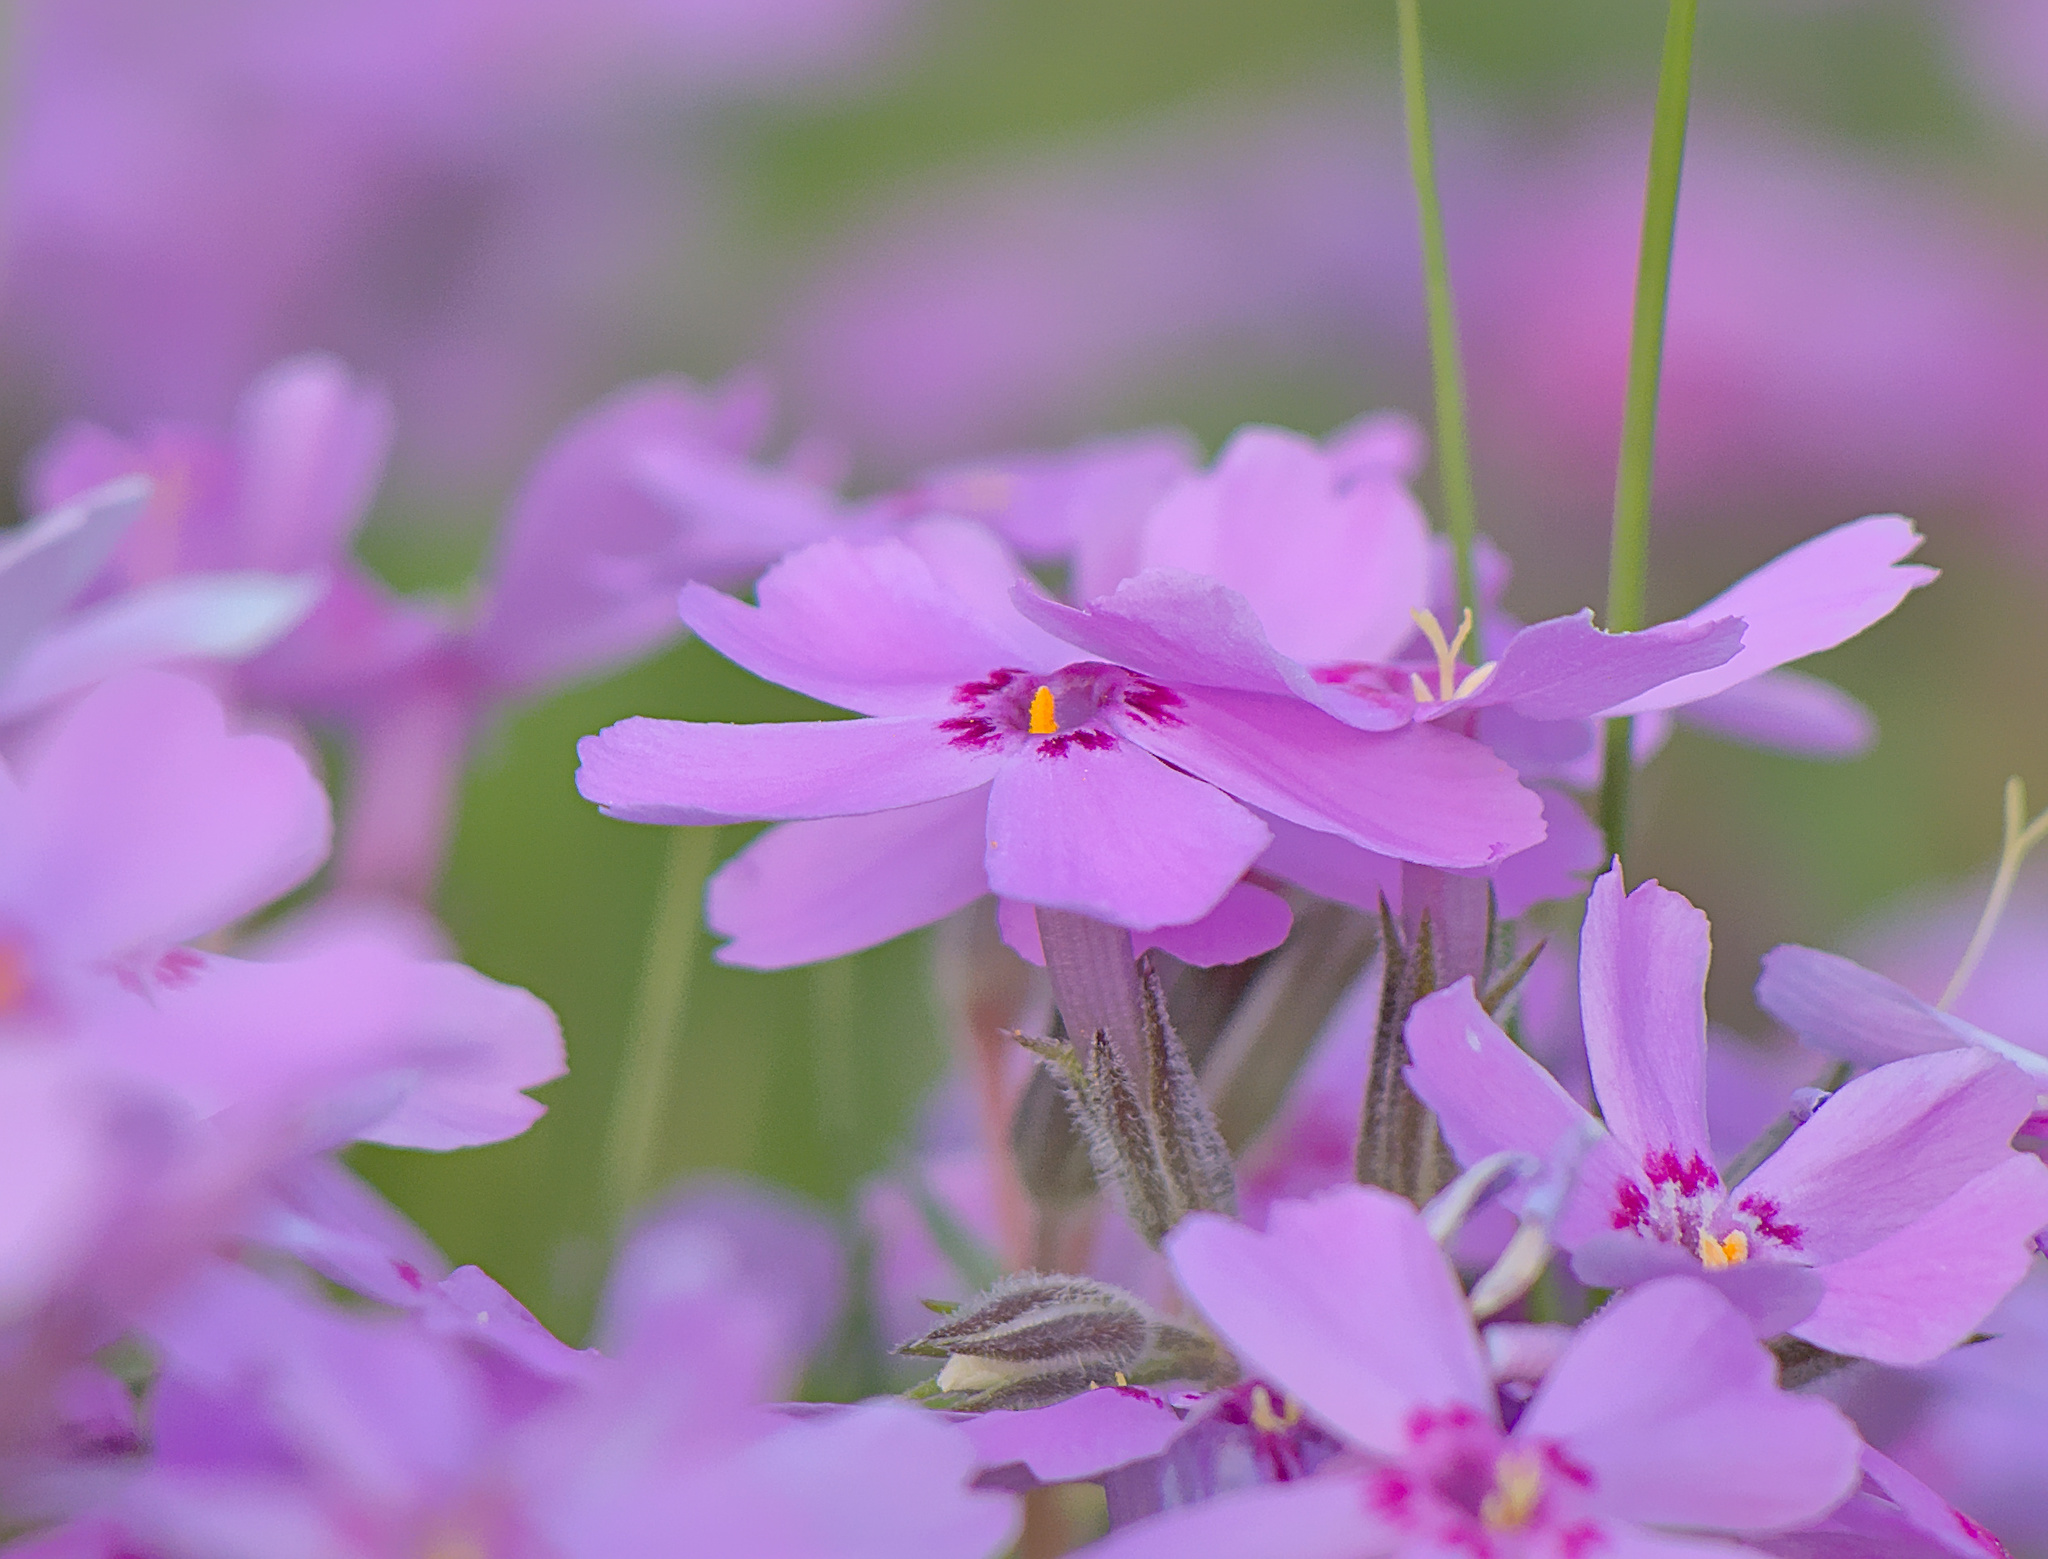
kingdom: Plantae
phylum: Tracheophyta
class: Magnoliopsida
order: Ericales
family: Polemoniaceae
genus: Phlox
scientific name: Phlox subulata
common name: Moss phlox
